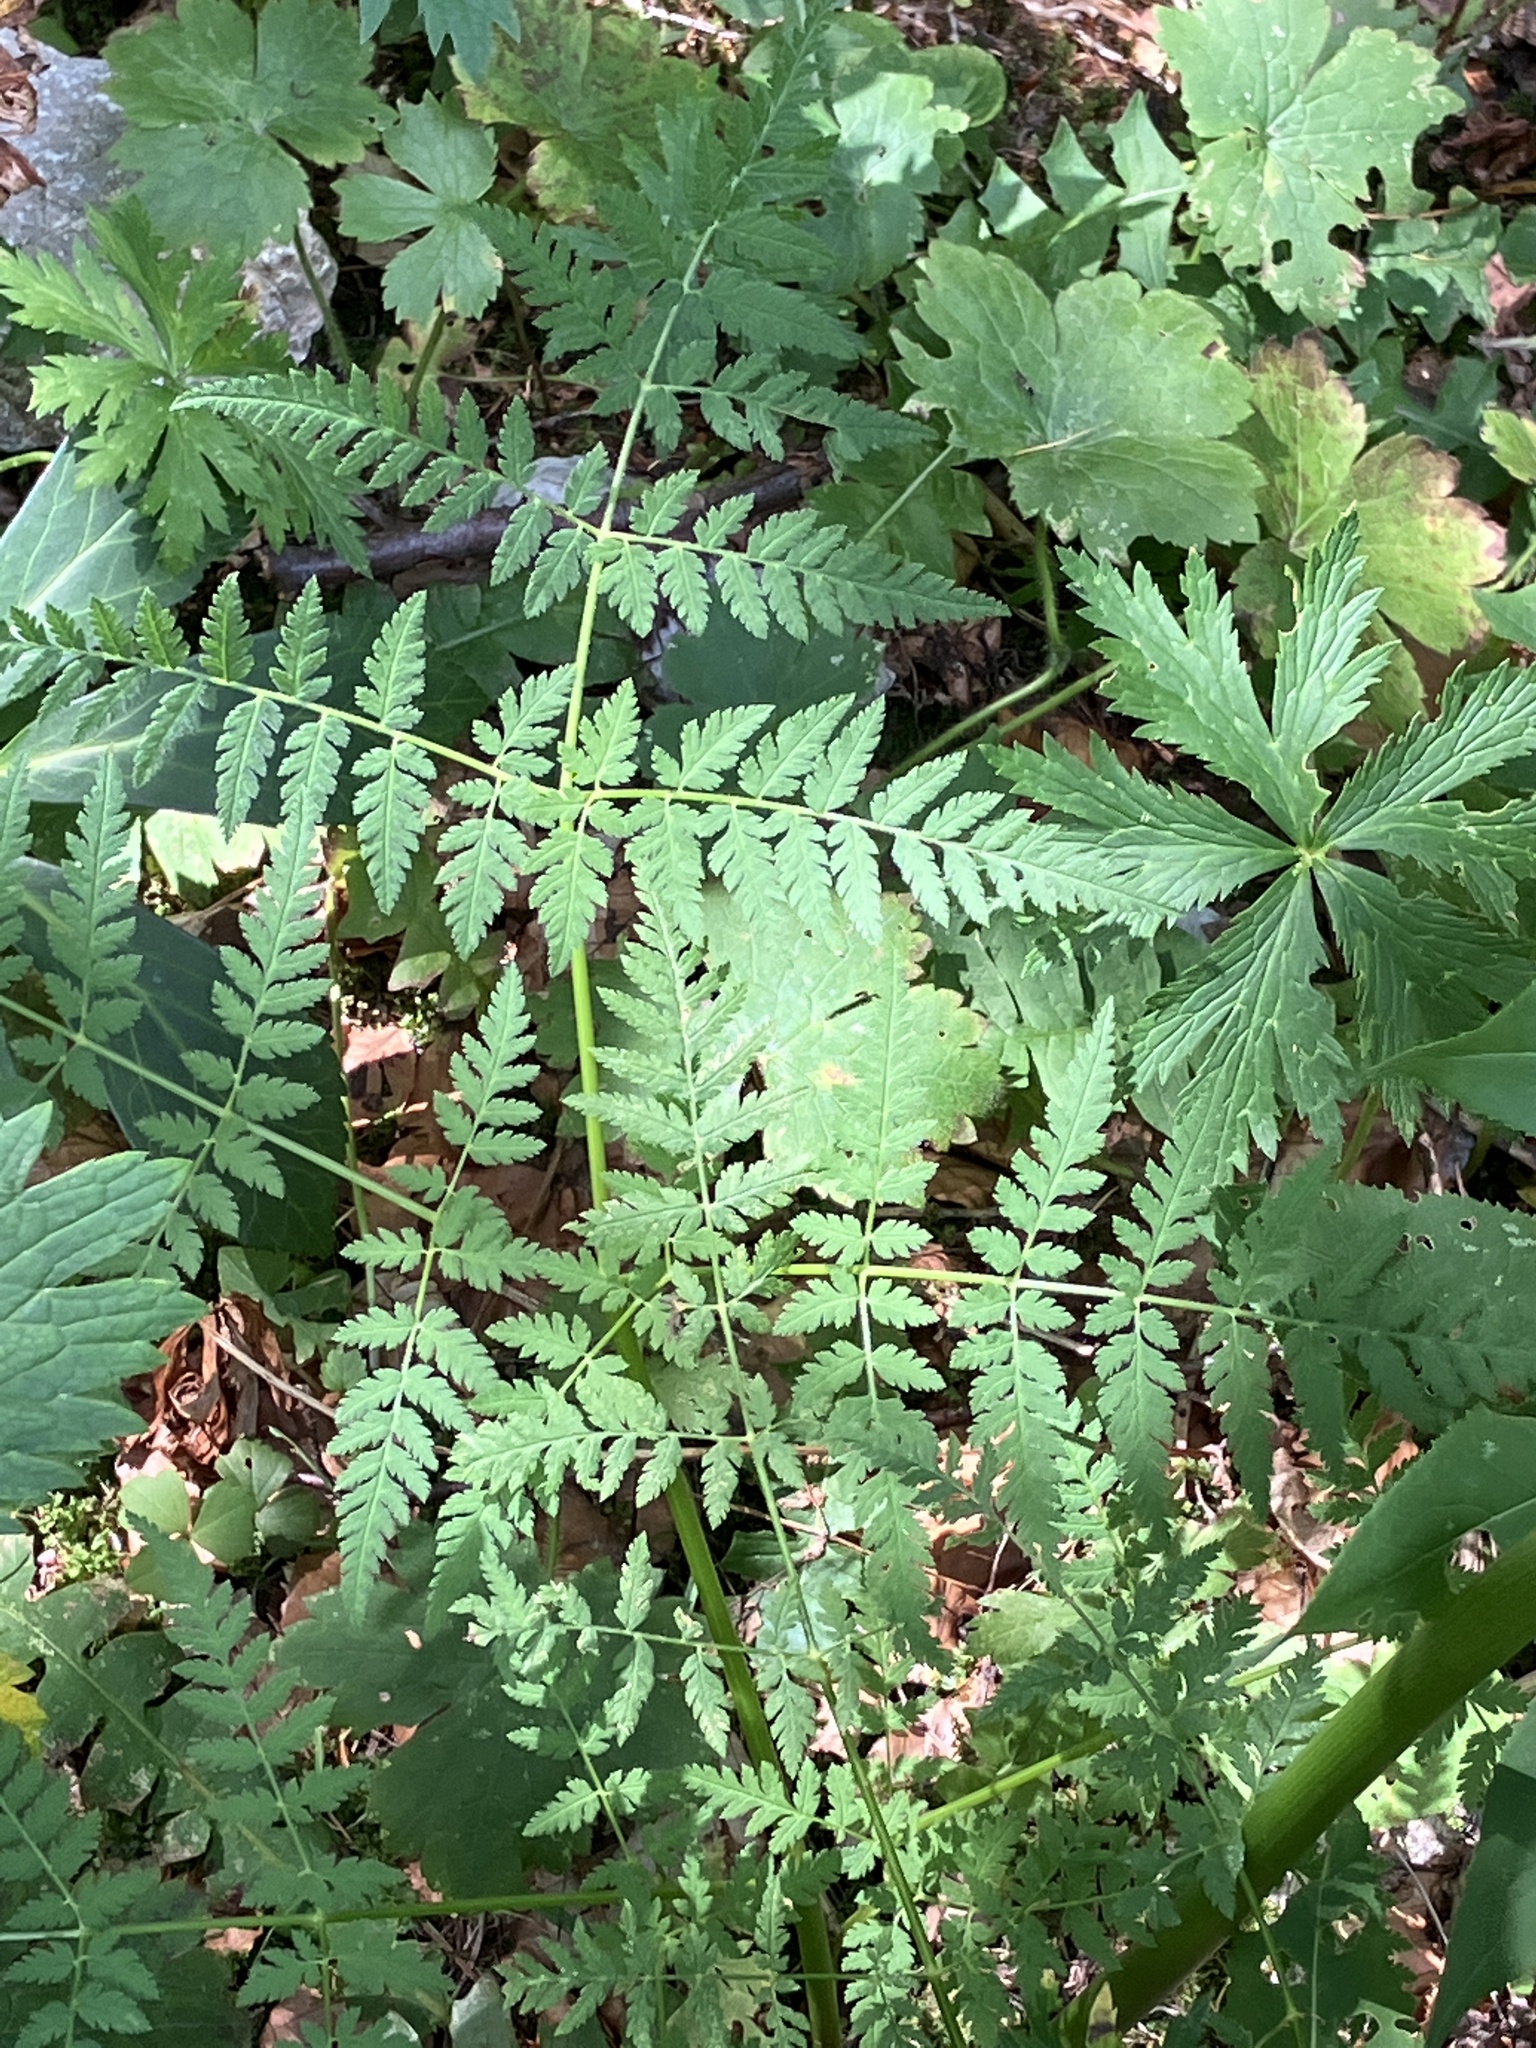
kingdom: Plantae
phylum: Tracheophyta
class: Magnoliopsida
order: Apiales
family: Apiaceae
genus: Myrrhis
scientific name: Myrrhis odorata
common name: Sweet cicely
